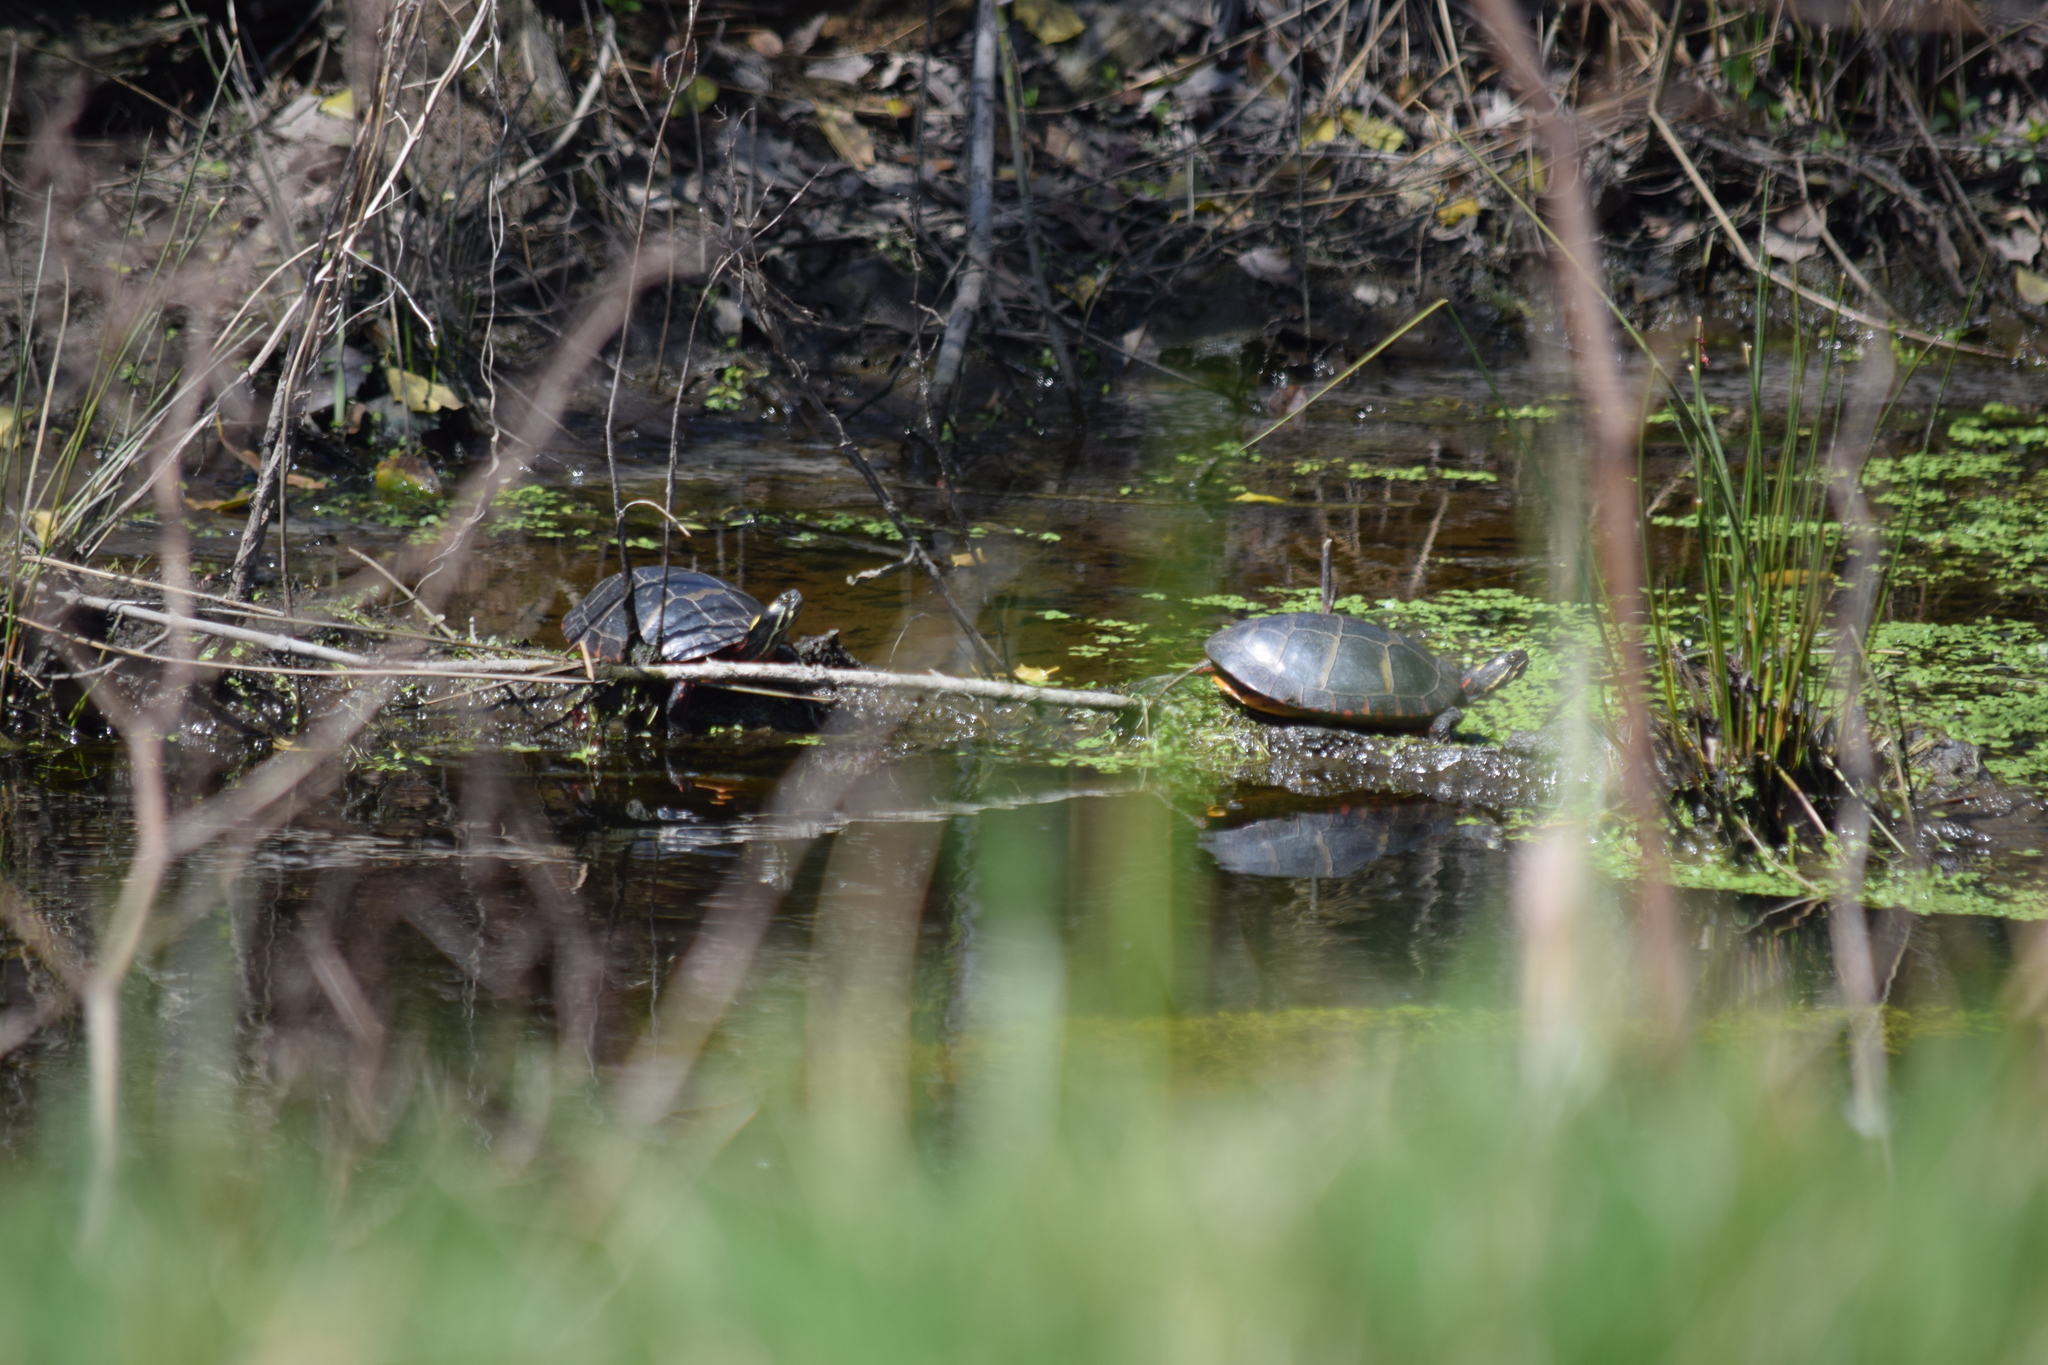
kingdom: Animalia
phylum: Chordata
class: Testudines
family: Emydidae
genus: Chrysemys
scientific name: Chrysemys picta
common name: Painted turtle
